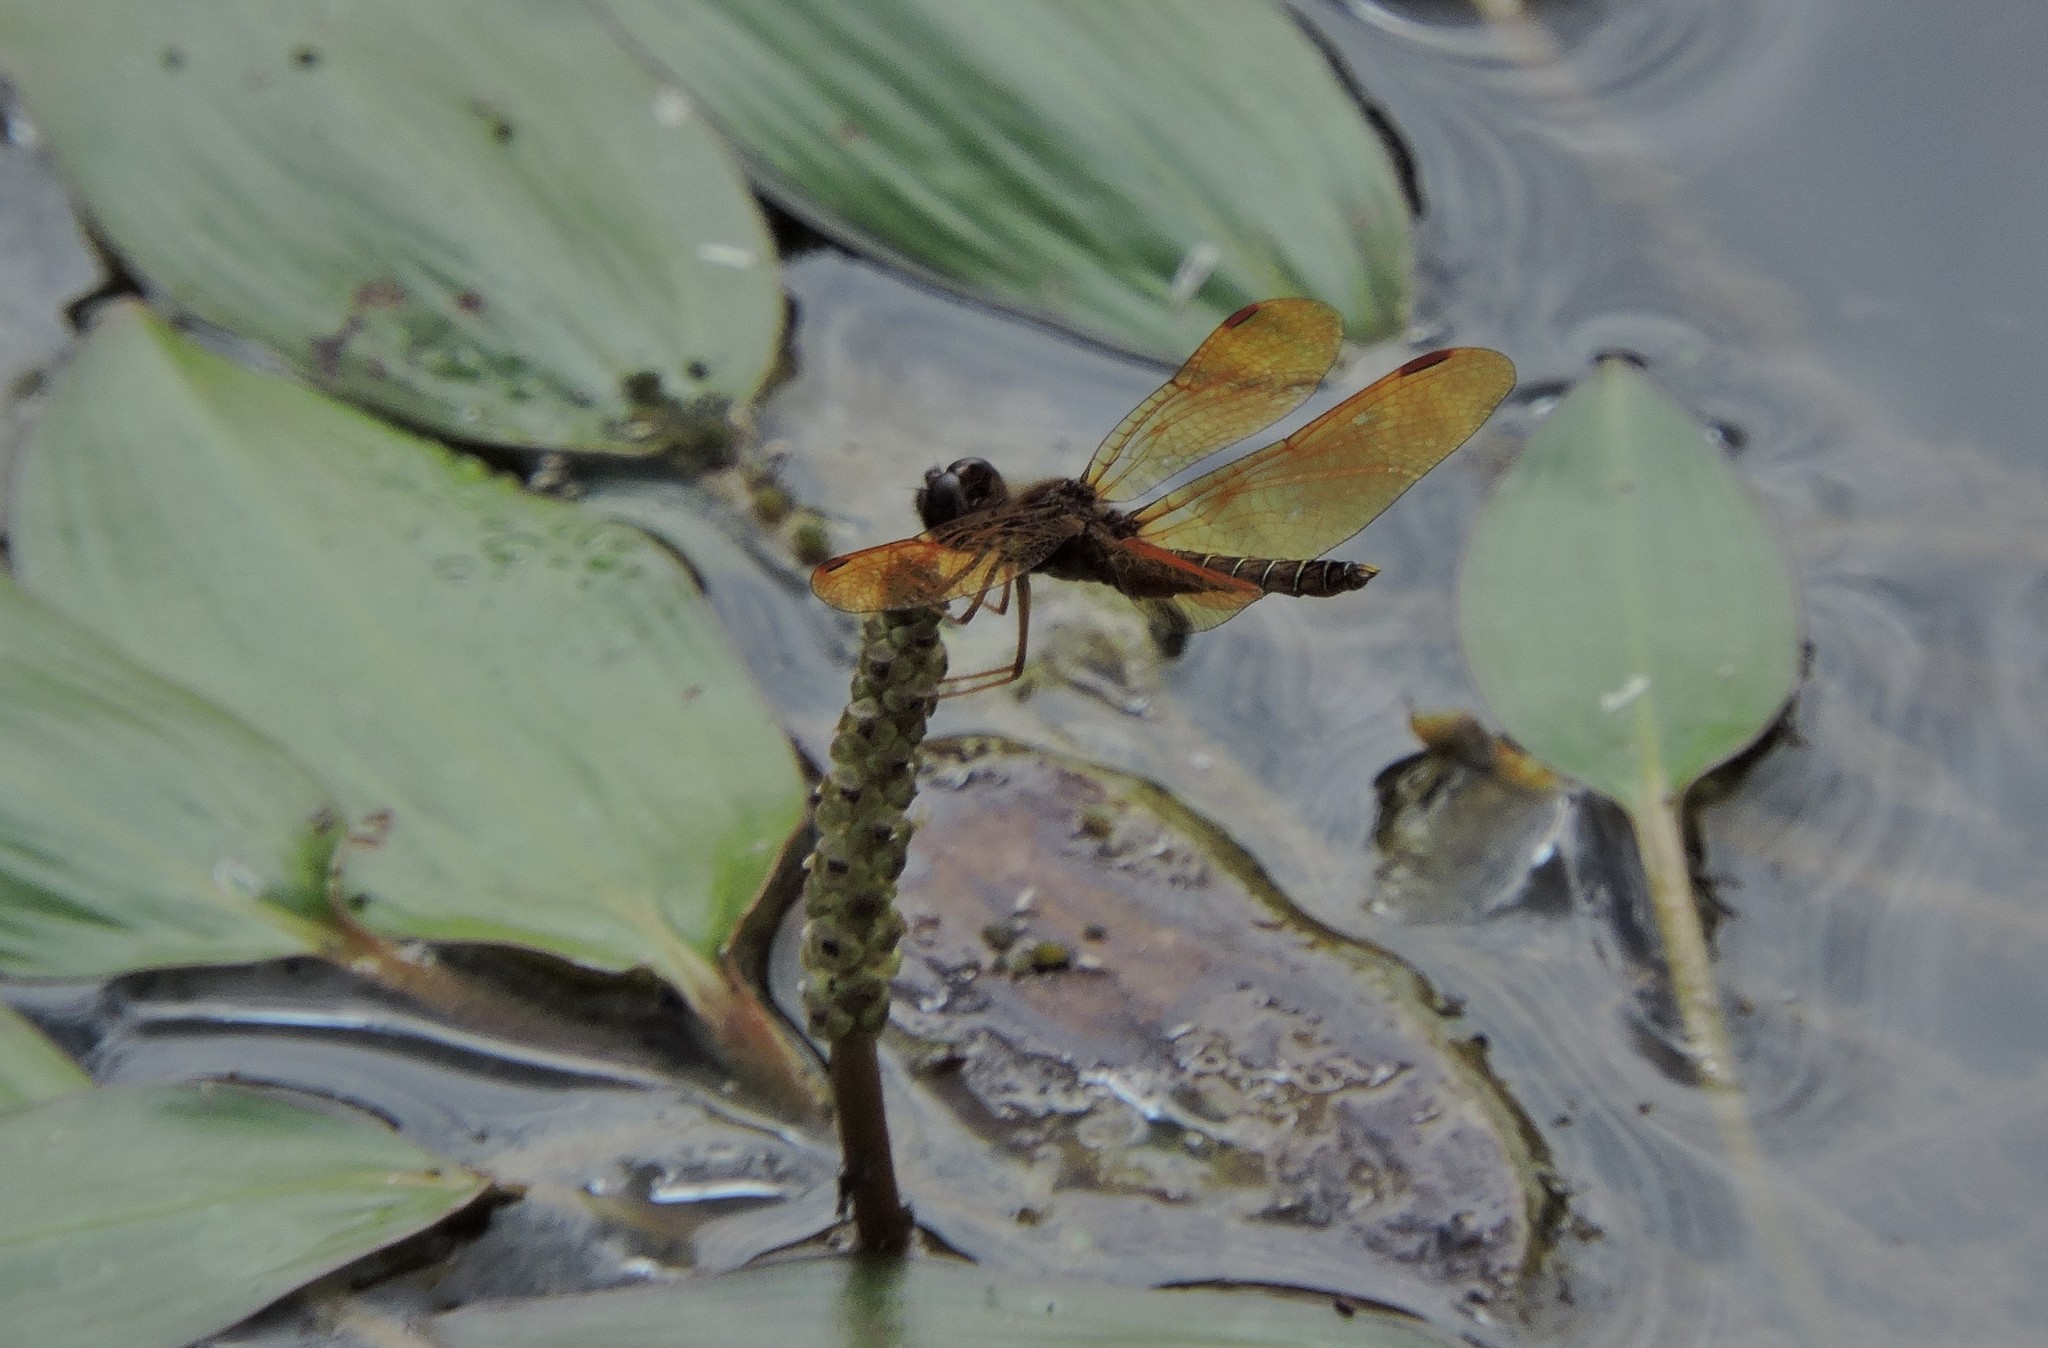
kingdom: Animalia
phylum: Arthropoda
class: Insecta
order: Odonata
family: Libellulidae
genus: Perithemis
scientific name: Perithemis tenera
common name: Eastern amberwing
